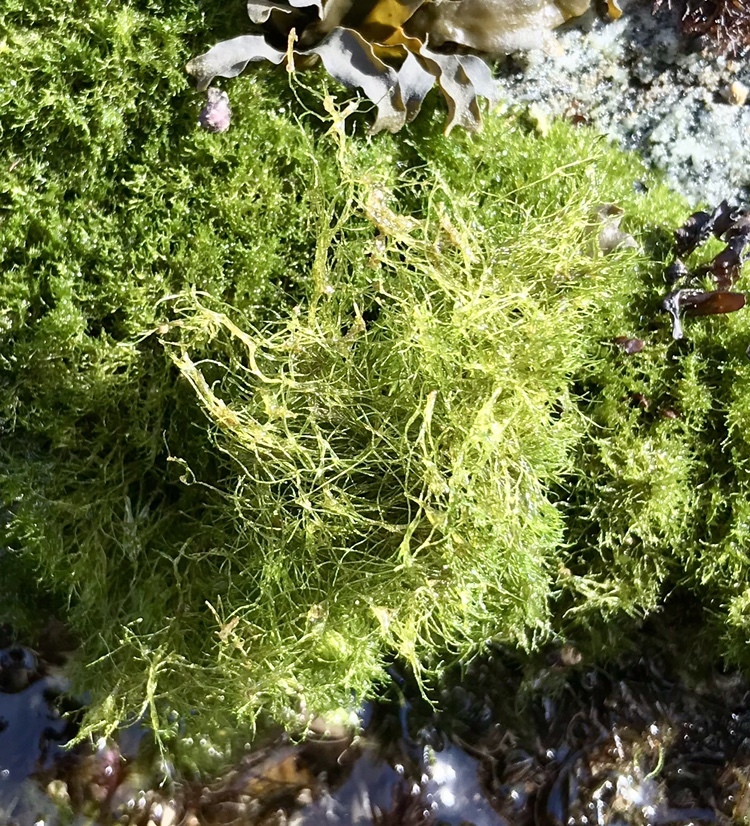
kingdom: Plantae
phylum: Chlorophyta
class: Ulvophyceae
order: Cladophorales
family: Cladophoraceae
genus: Cladophora
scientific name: Cladophora columbiana
